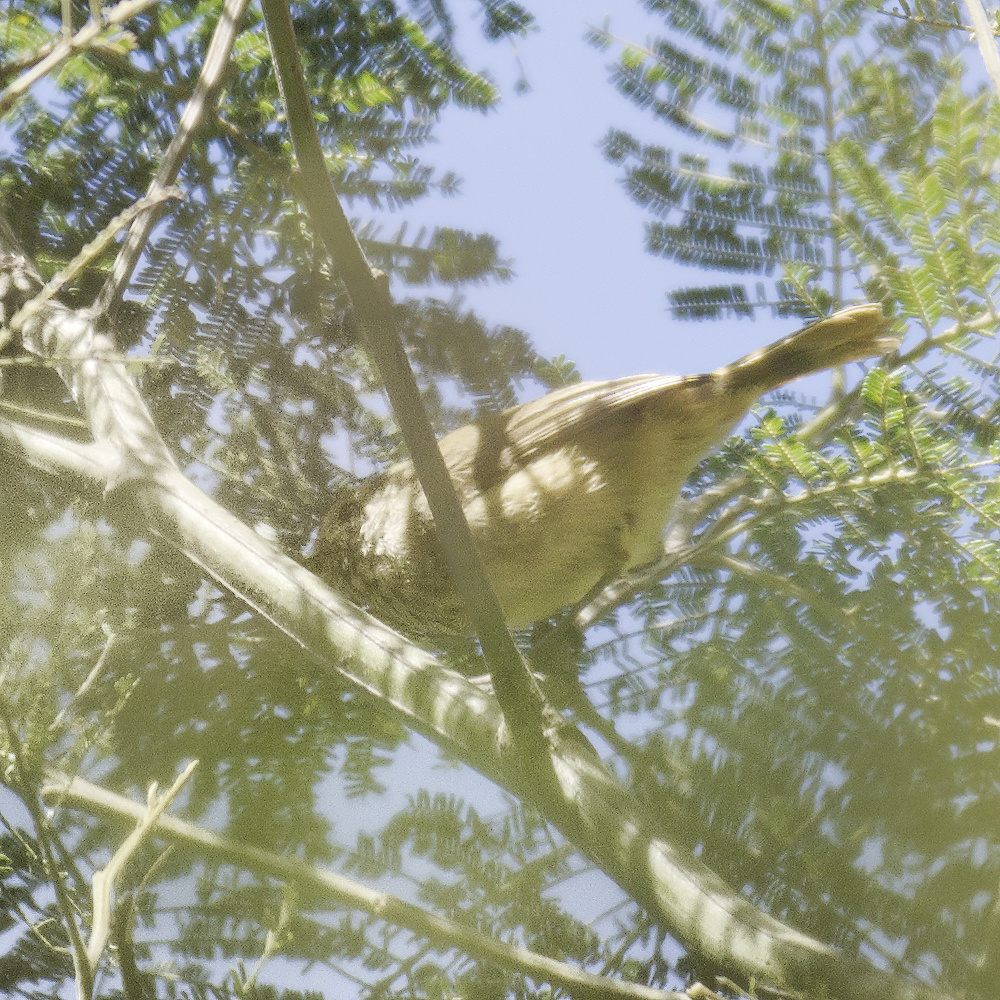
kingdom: Animalia
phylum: Chordata
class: Aves
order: Passeriformes
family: Acanthizidae
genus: Acanthiza
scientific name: Acanthiza pusilla
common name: Brown thornbill
